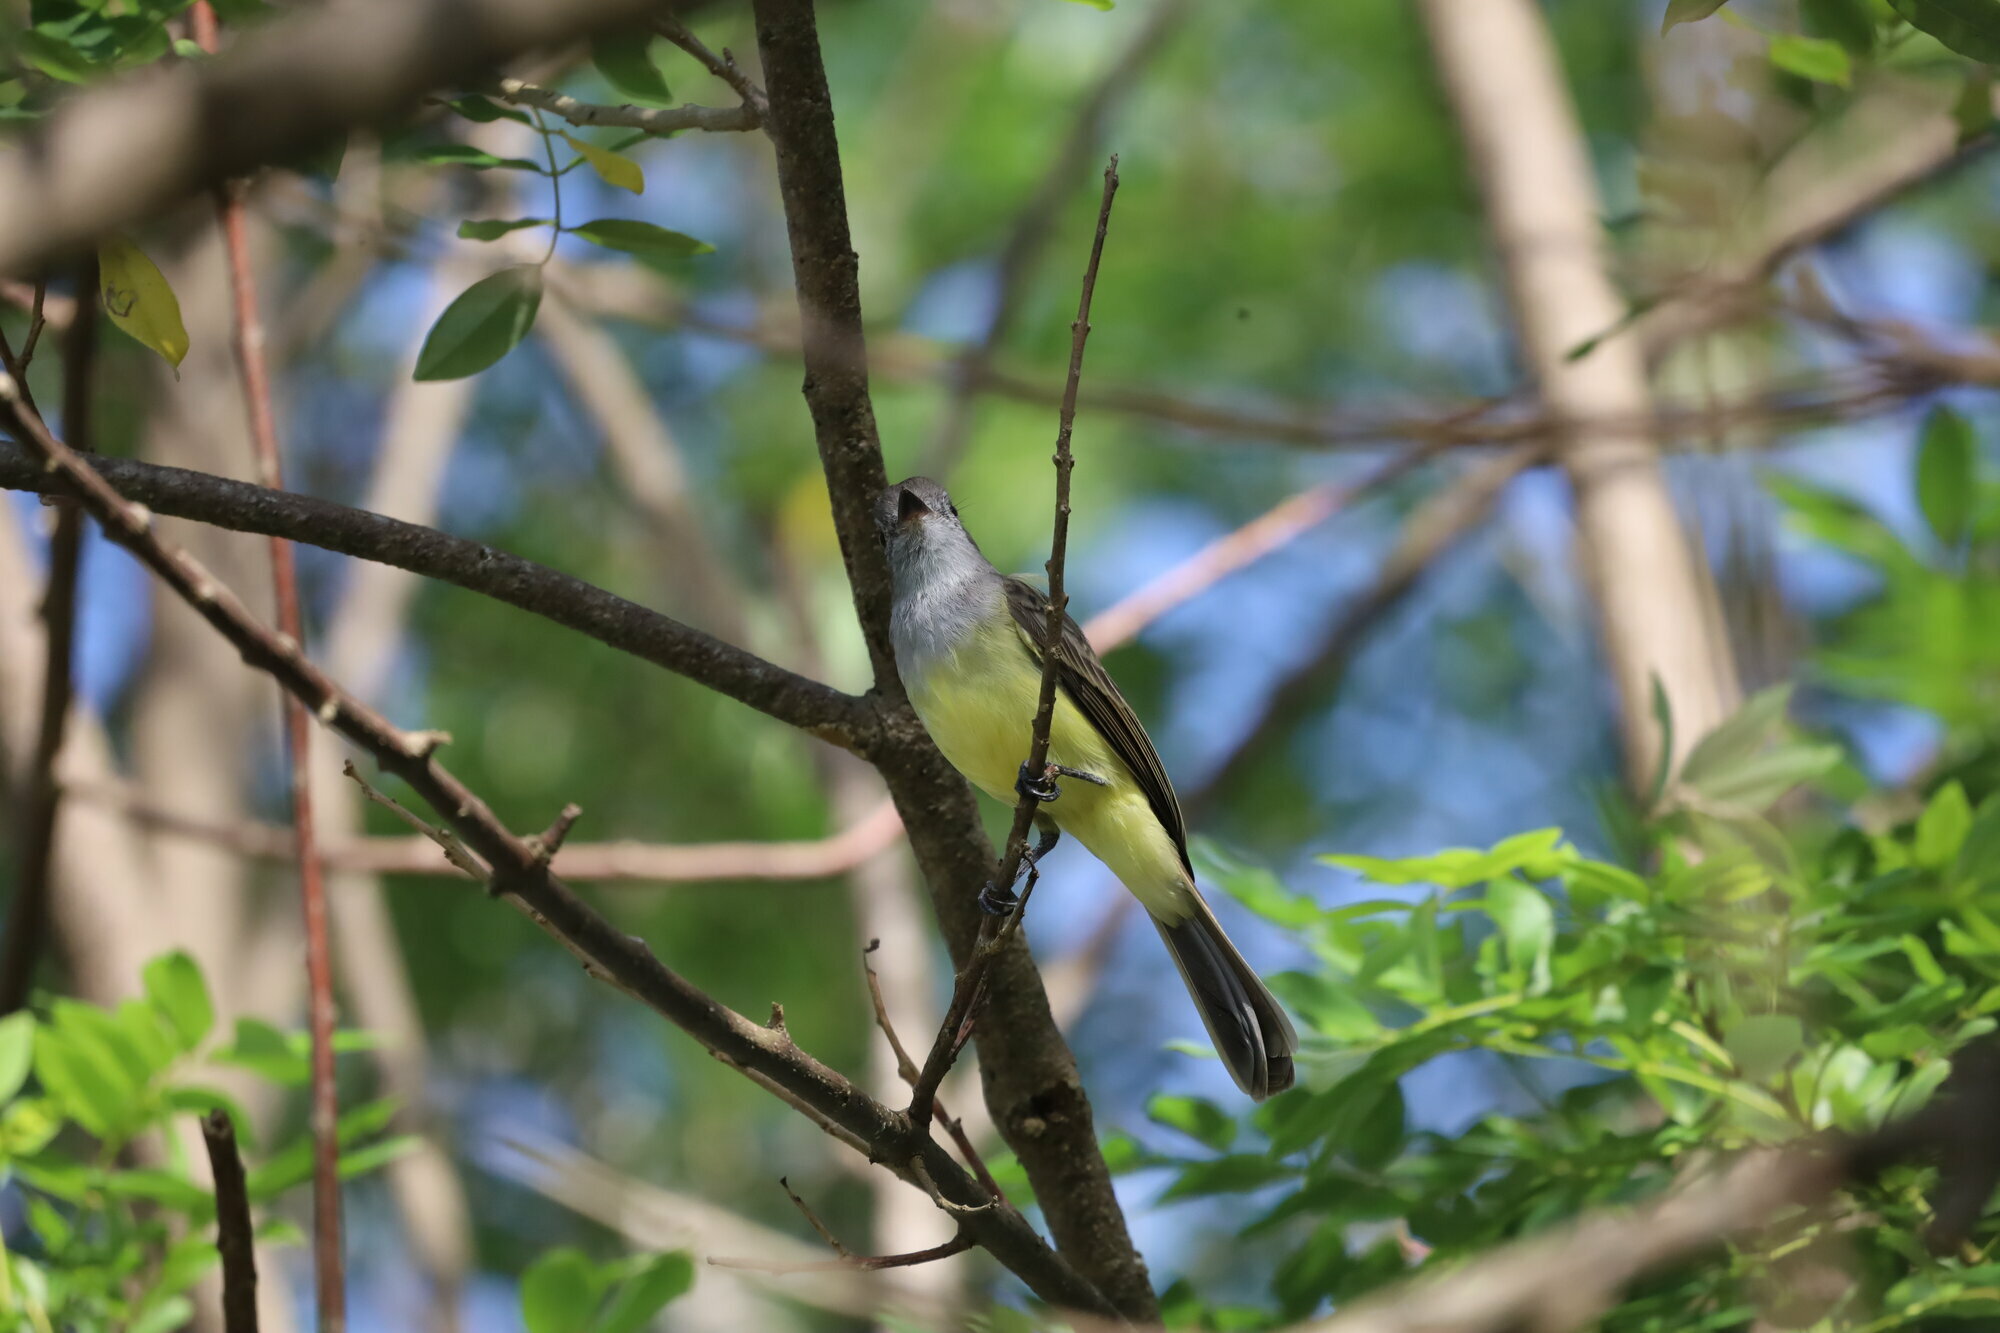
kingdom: Animalia
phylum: Chordata
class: Aves
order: Passeriformes
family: Tyrannidae
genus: Myiarchus
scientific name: Myiarchus panamensis
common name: Panama flycatcher
